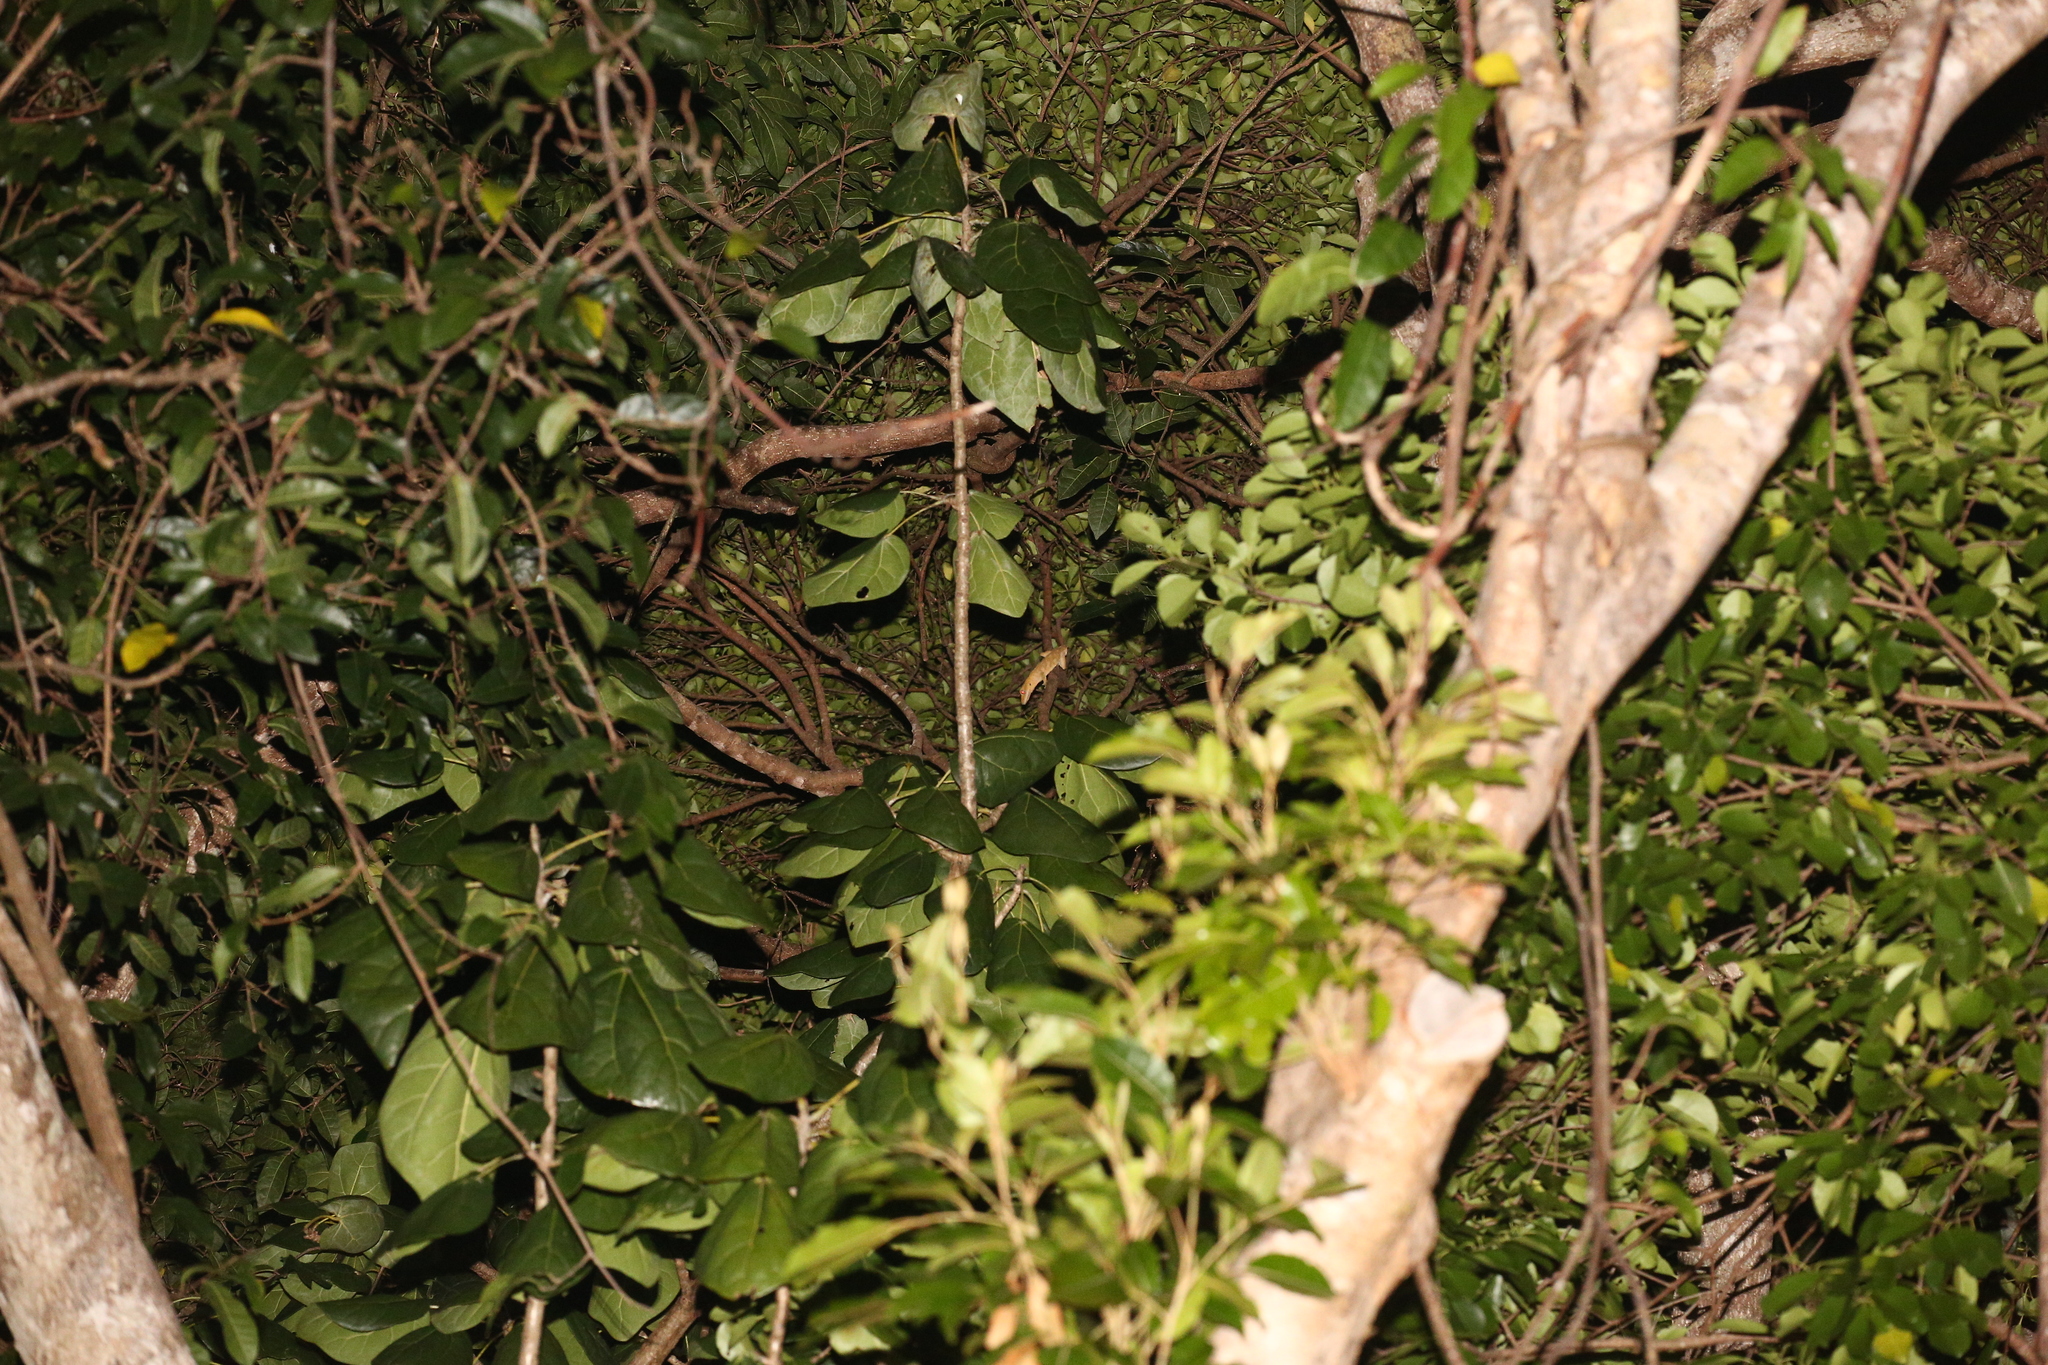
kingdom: Animalia
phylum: Chordata
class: Squamata
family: Diplodactylidae
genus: Correlophus
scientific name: Correlophus ciliatus
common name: Crested gecko
